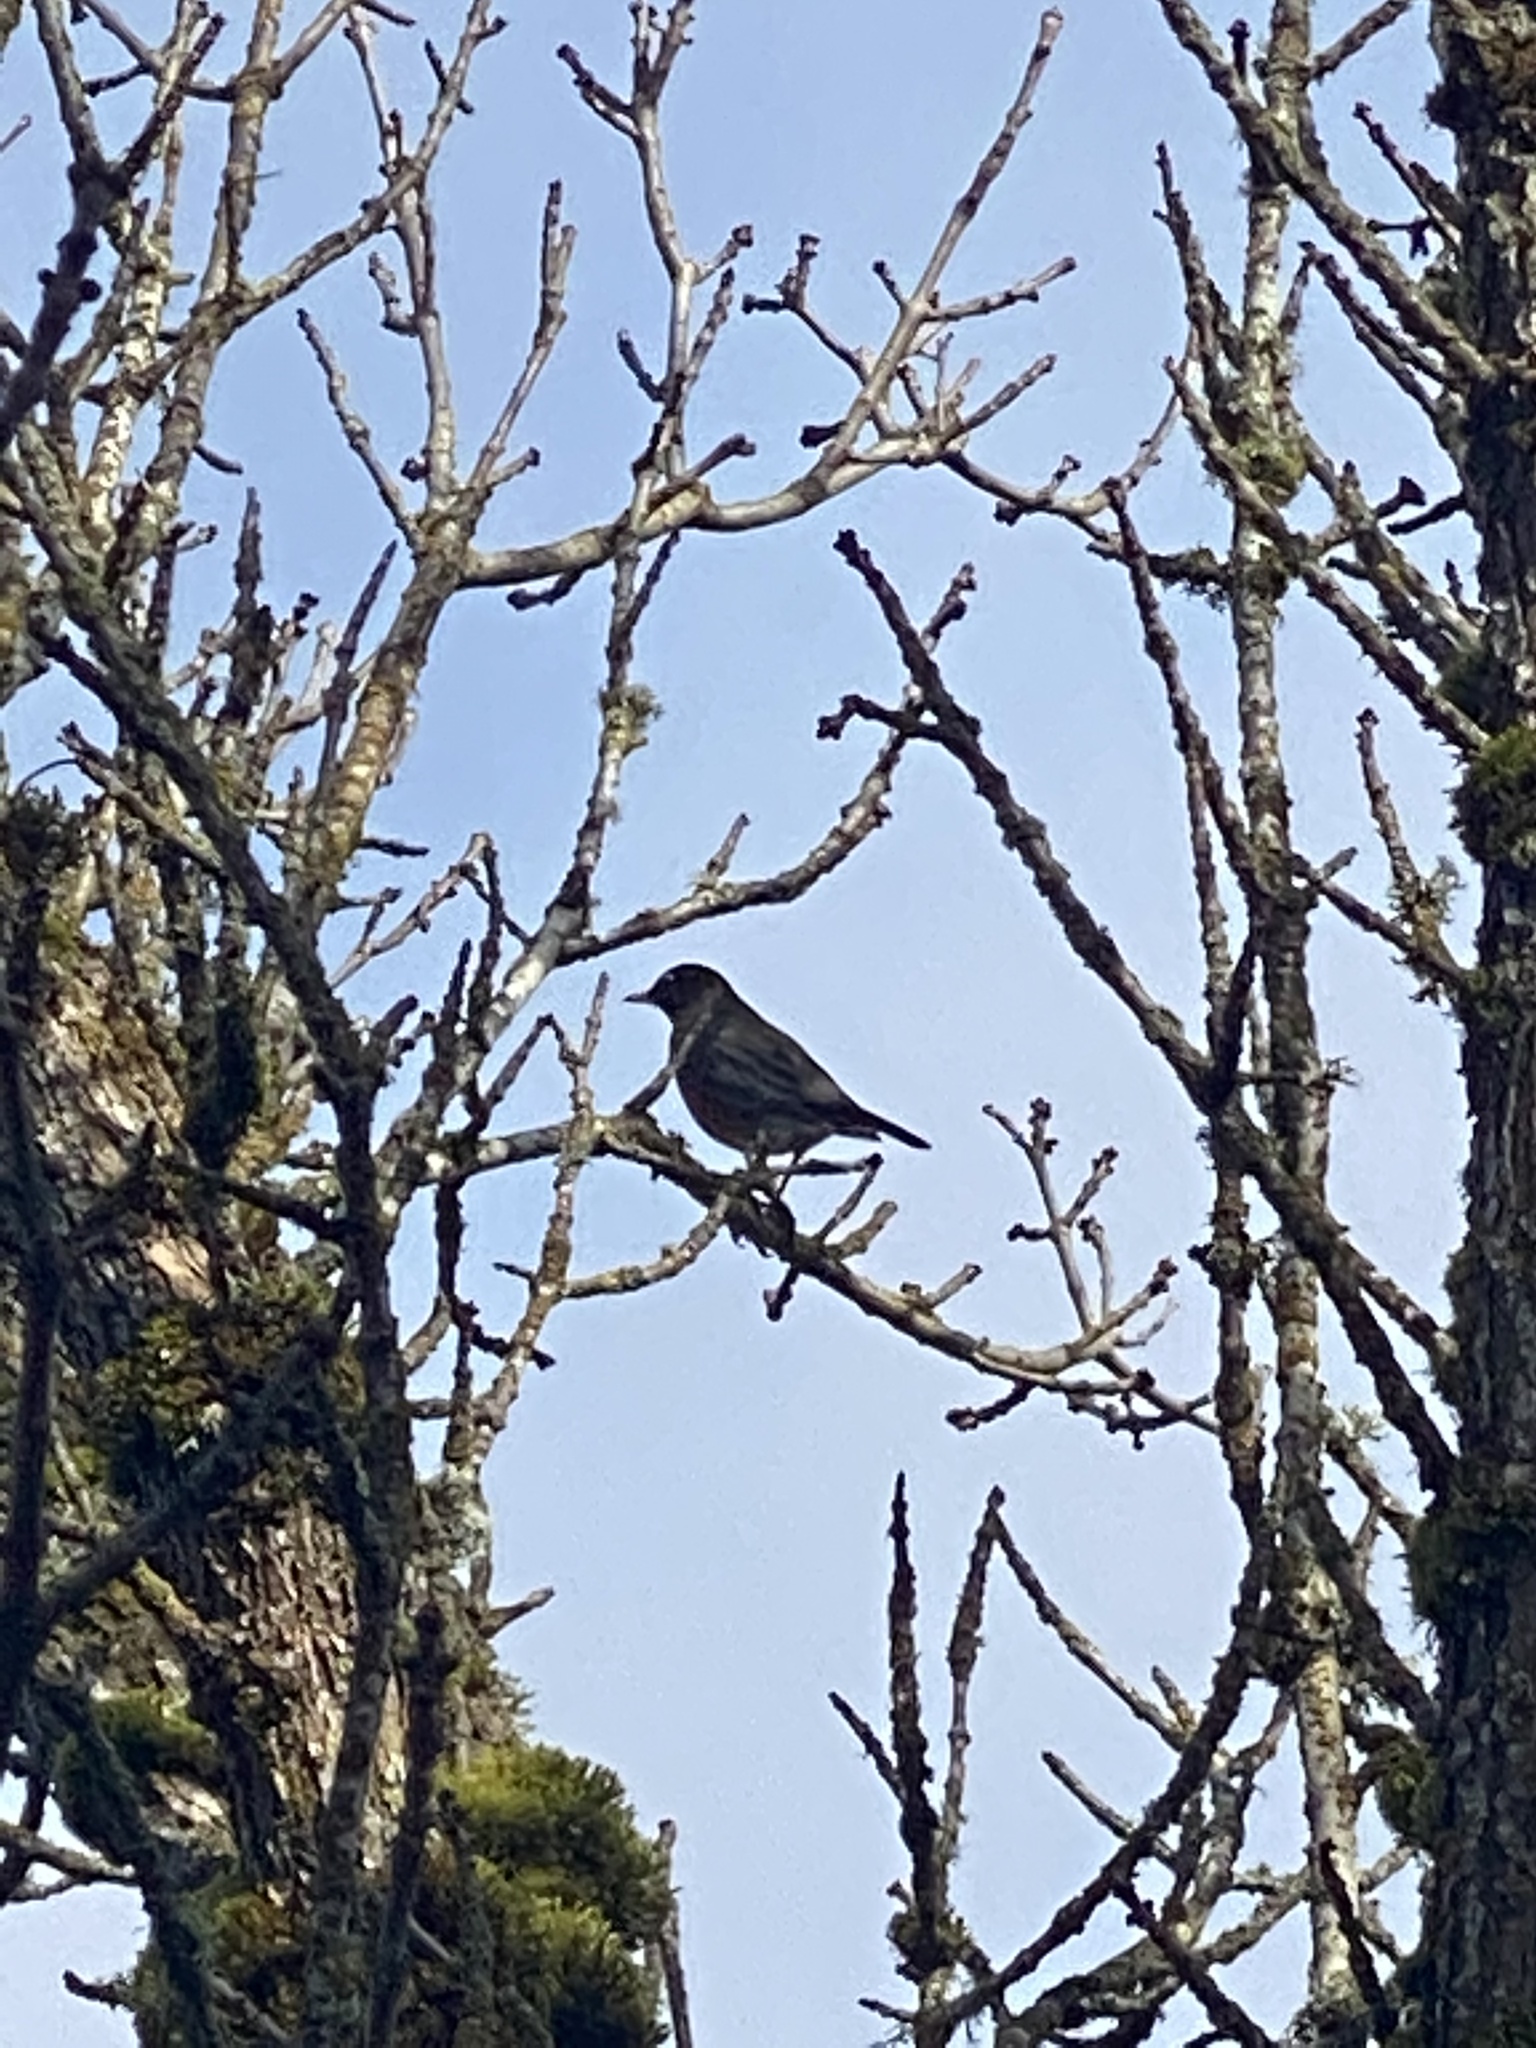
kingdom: Animalia
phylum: Chordata
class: Aves
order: Passeriformes
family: Turdidae
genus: Turdus
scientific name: Turdus migratorius
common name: American robin
